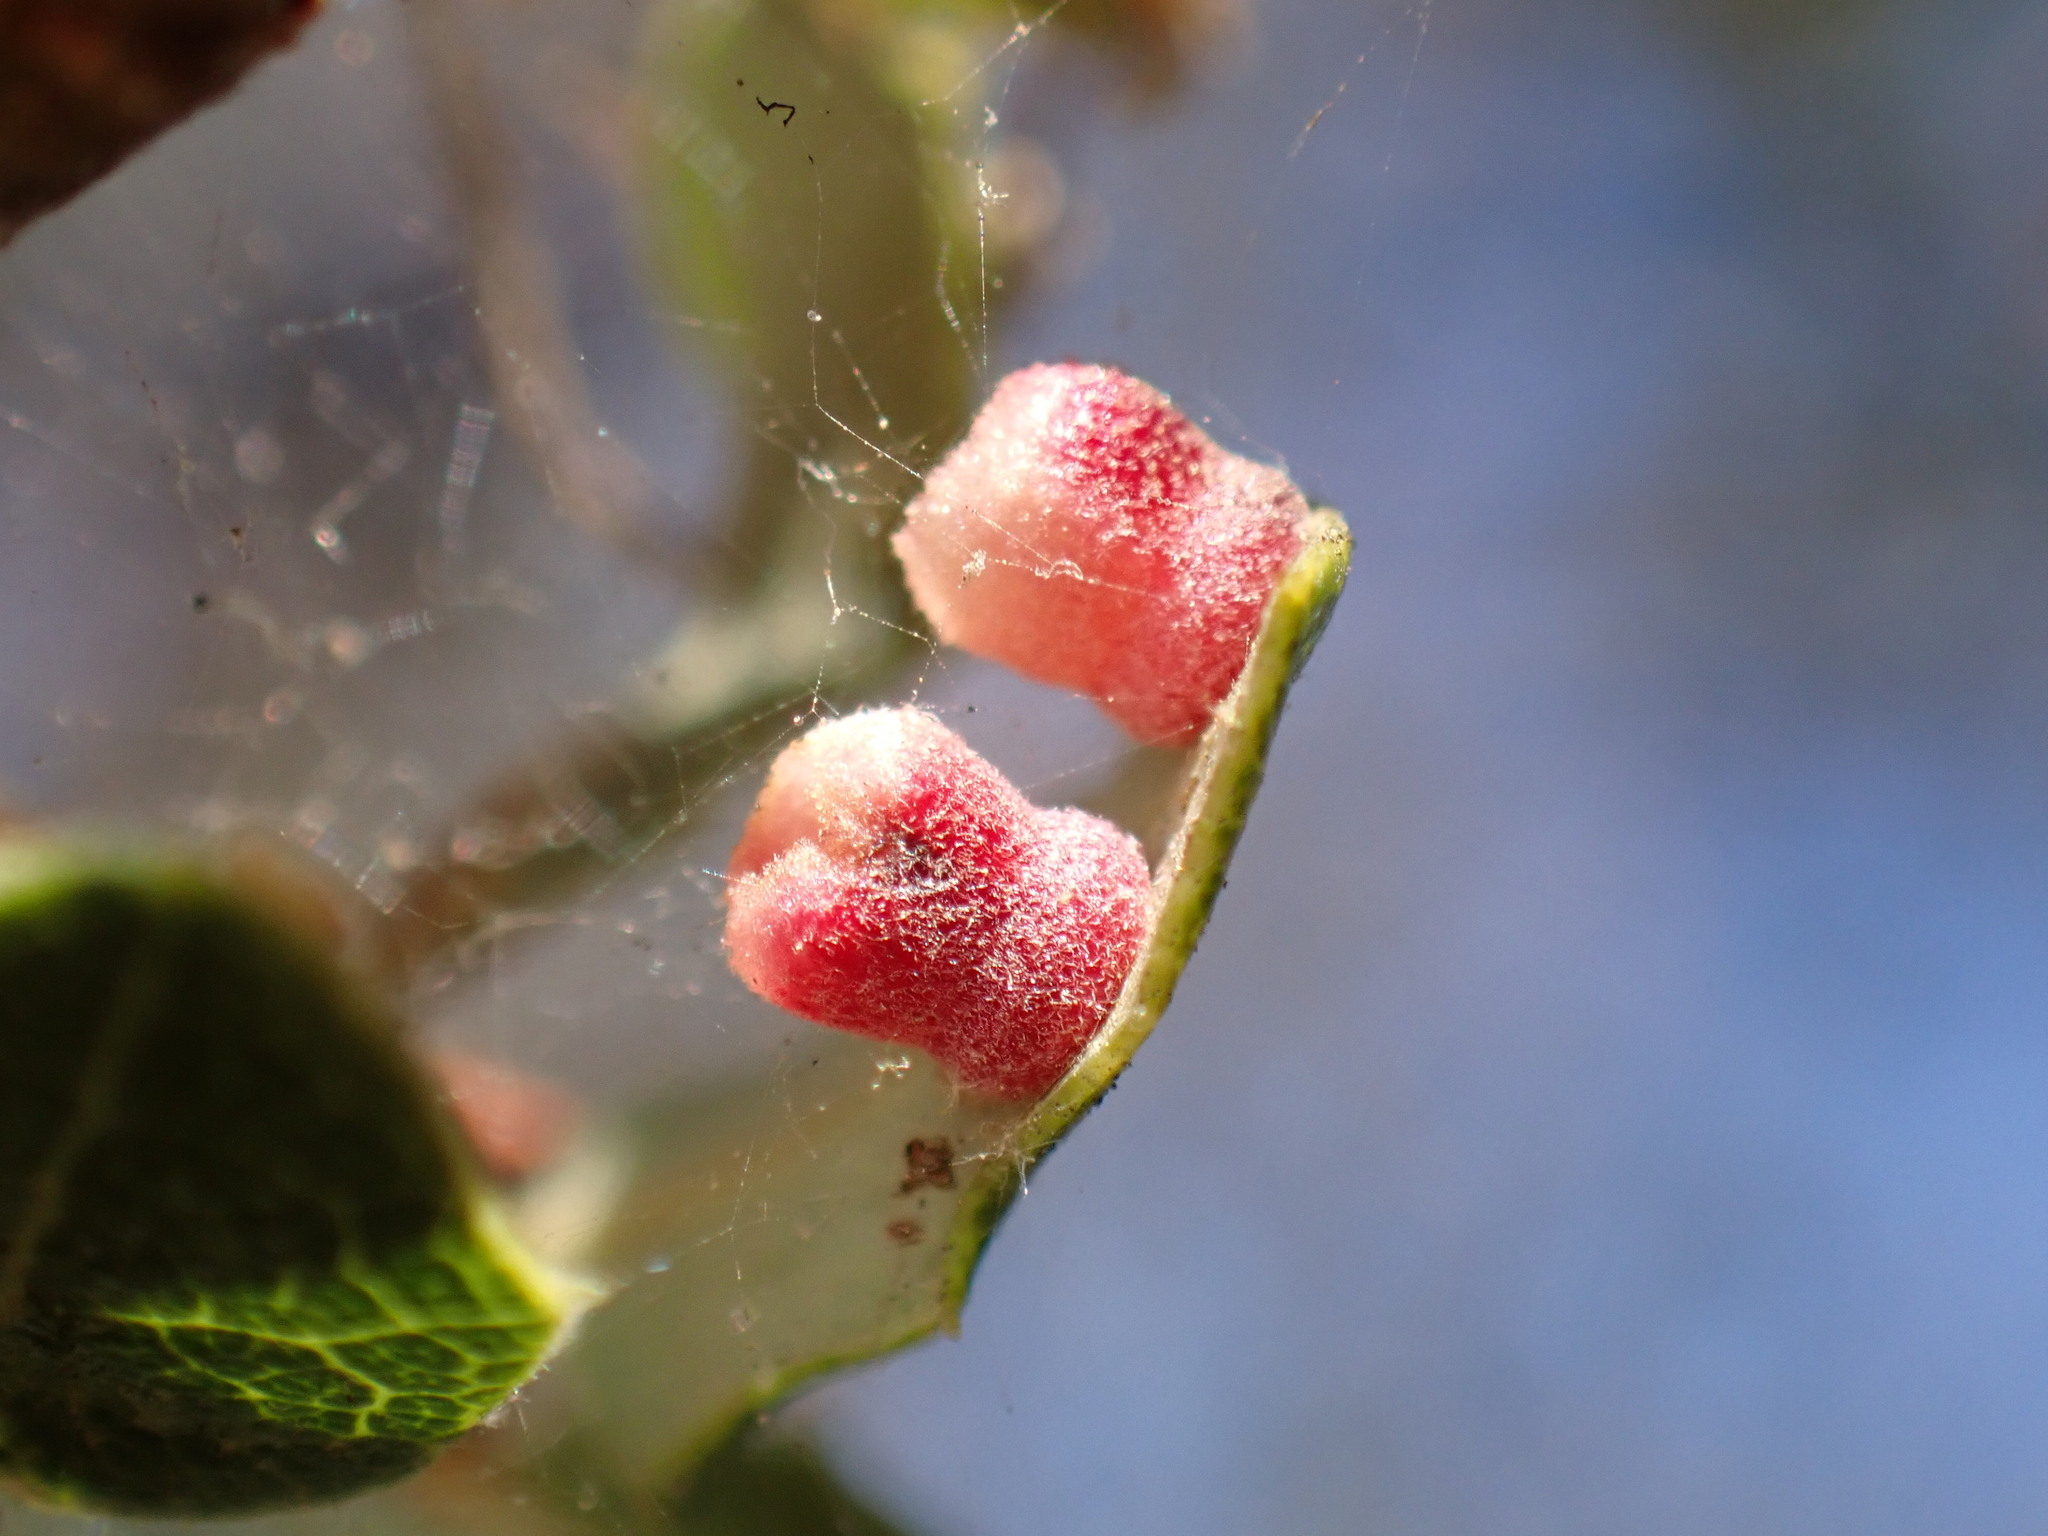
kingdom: Animalia
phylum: Arthropoda
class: Insecta
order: Hymenoptera
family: Cynipidae
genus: Phylloteras
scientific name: Phylloteras
